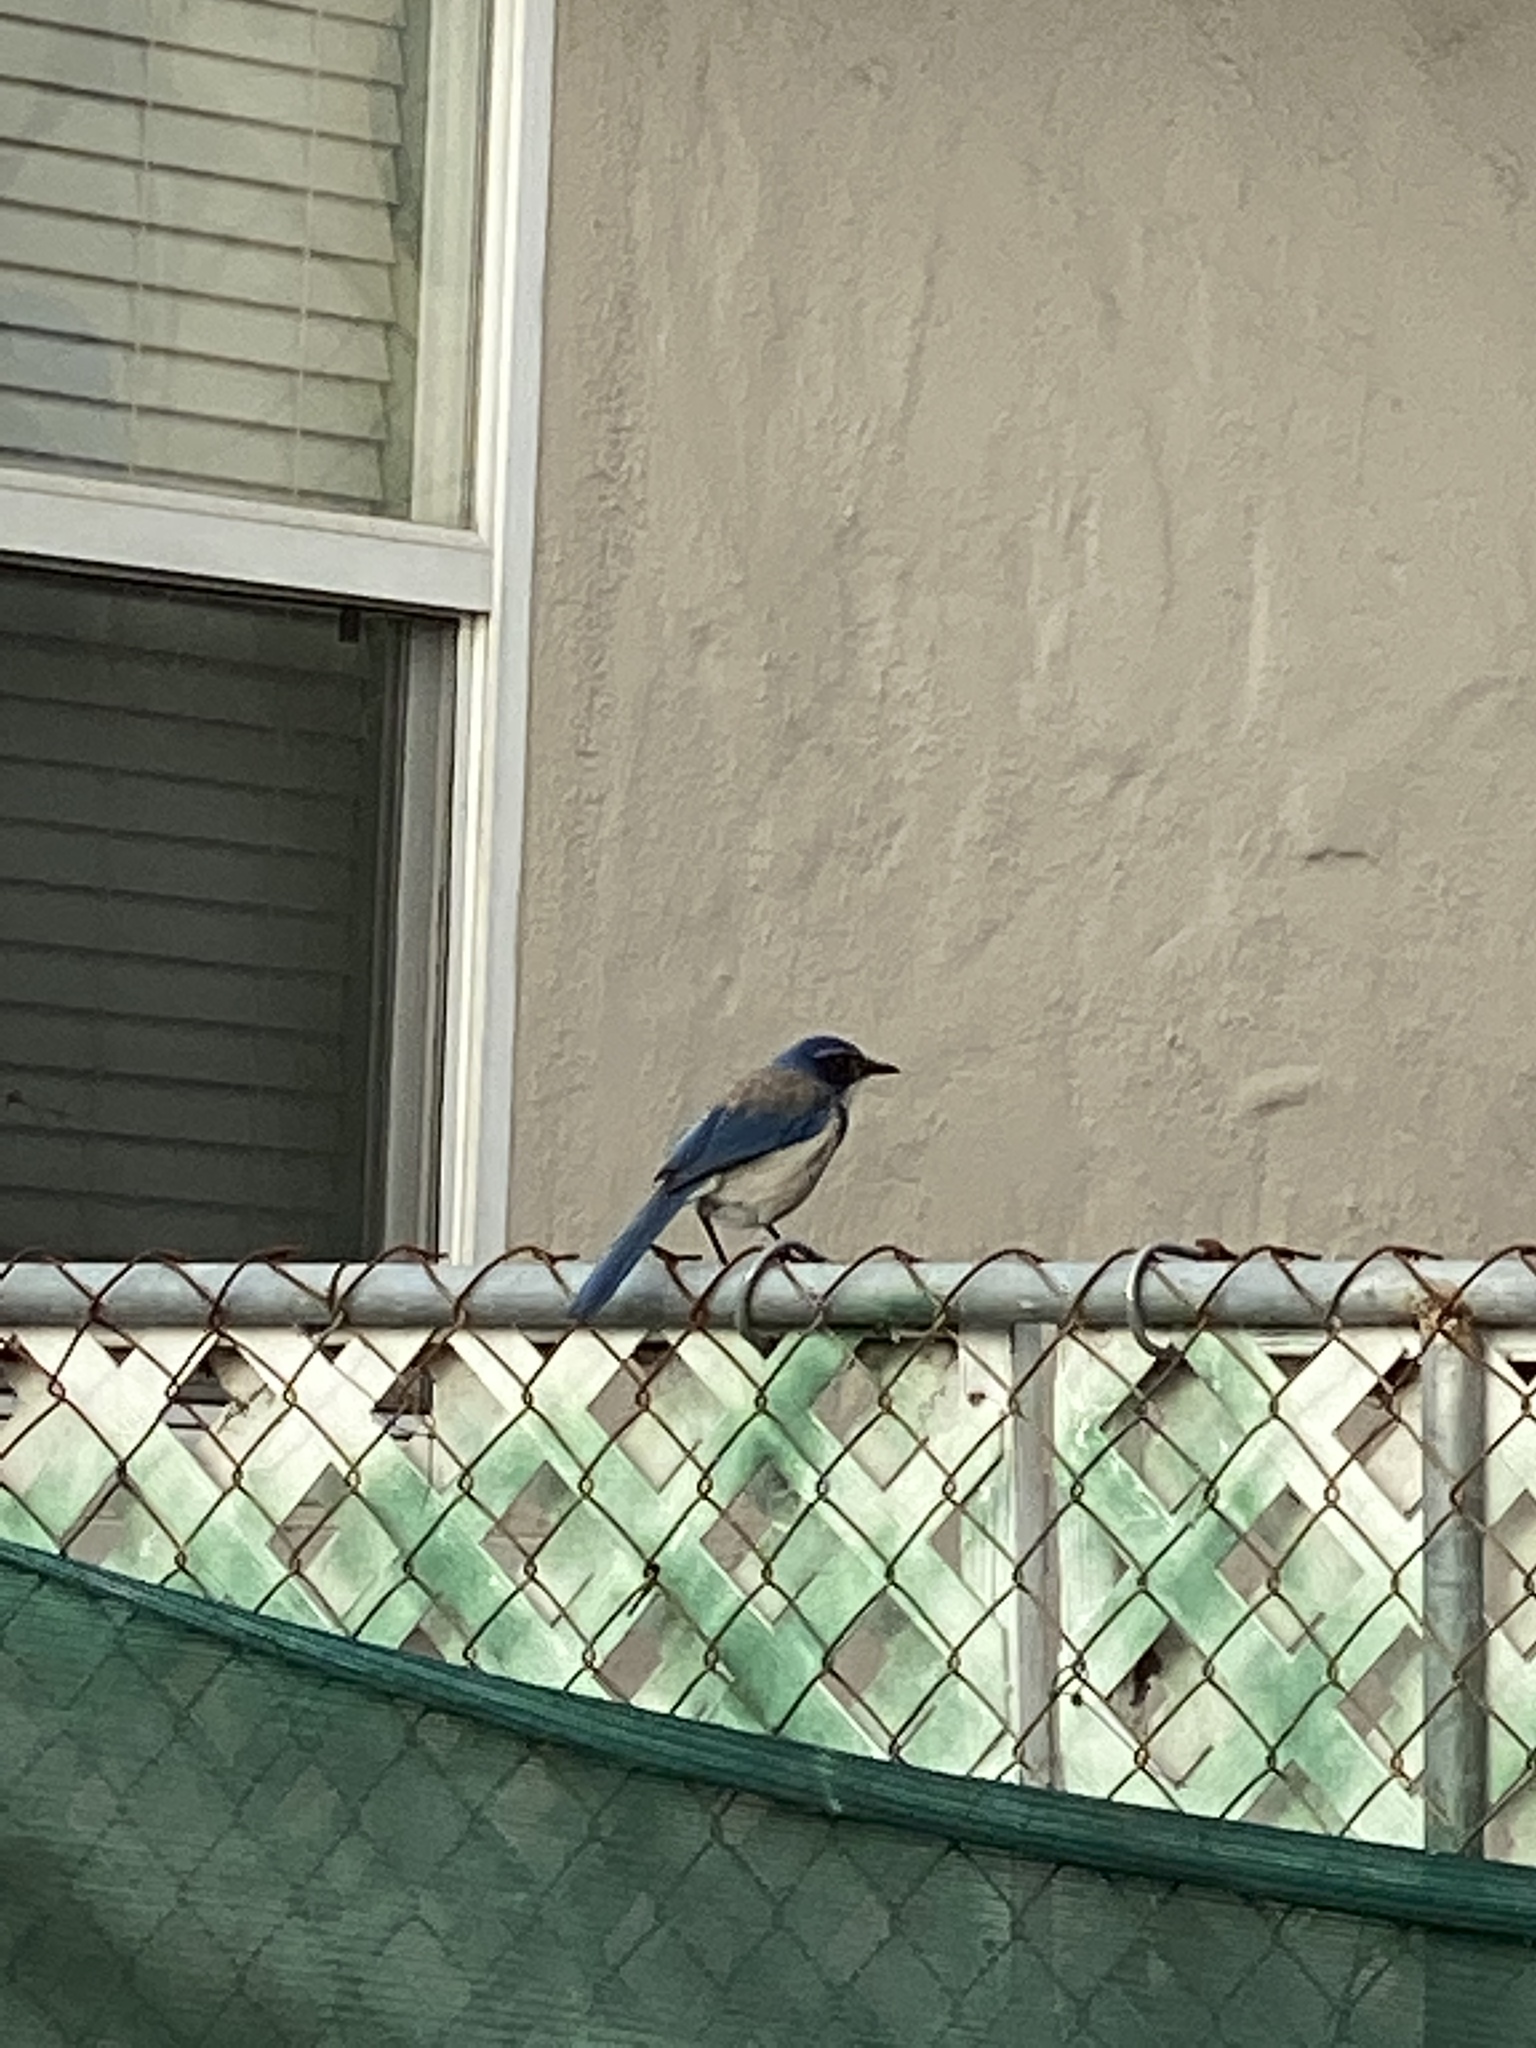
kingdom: Animalia
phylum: Chordata
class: Aves
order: Passeriformes
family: Corvidae
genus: Aphelocoma
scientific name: Aphelocoma californica
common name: California scrub-jay
